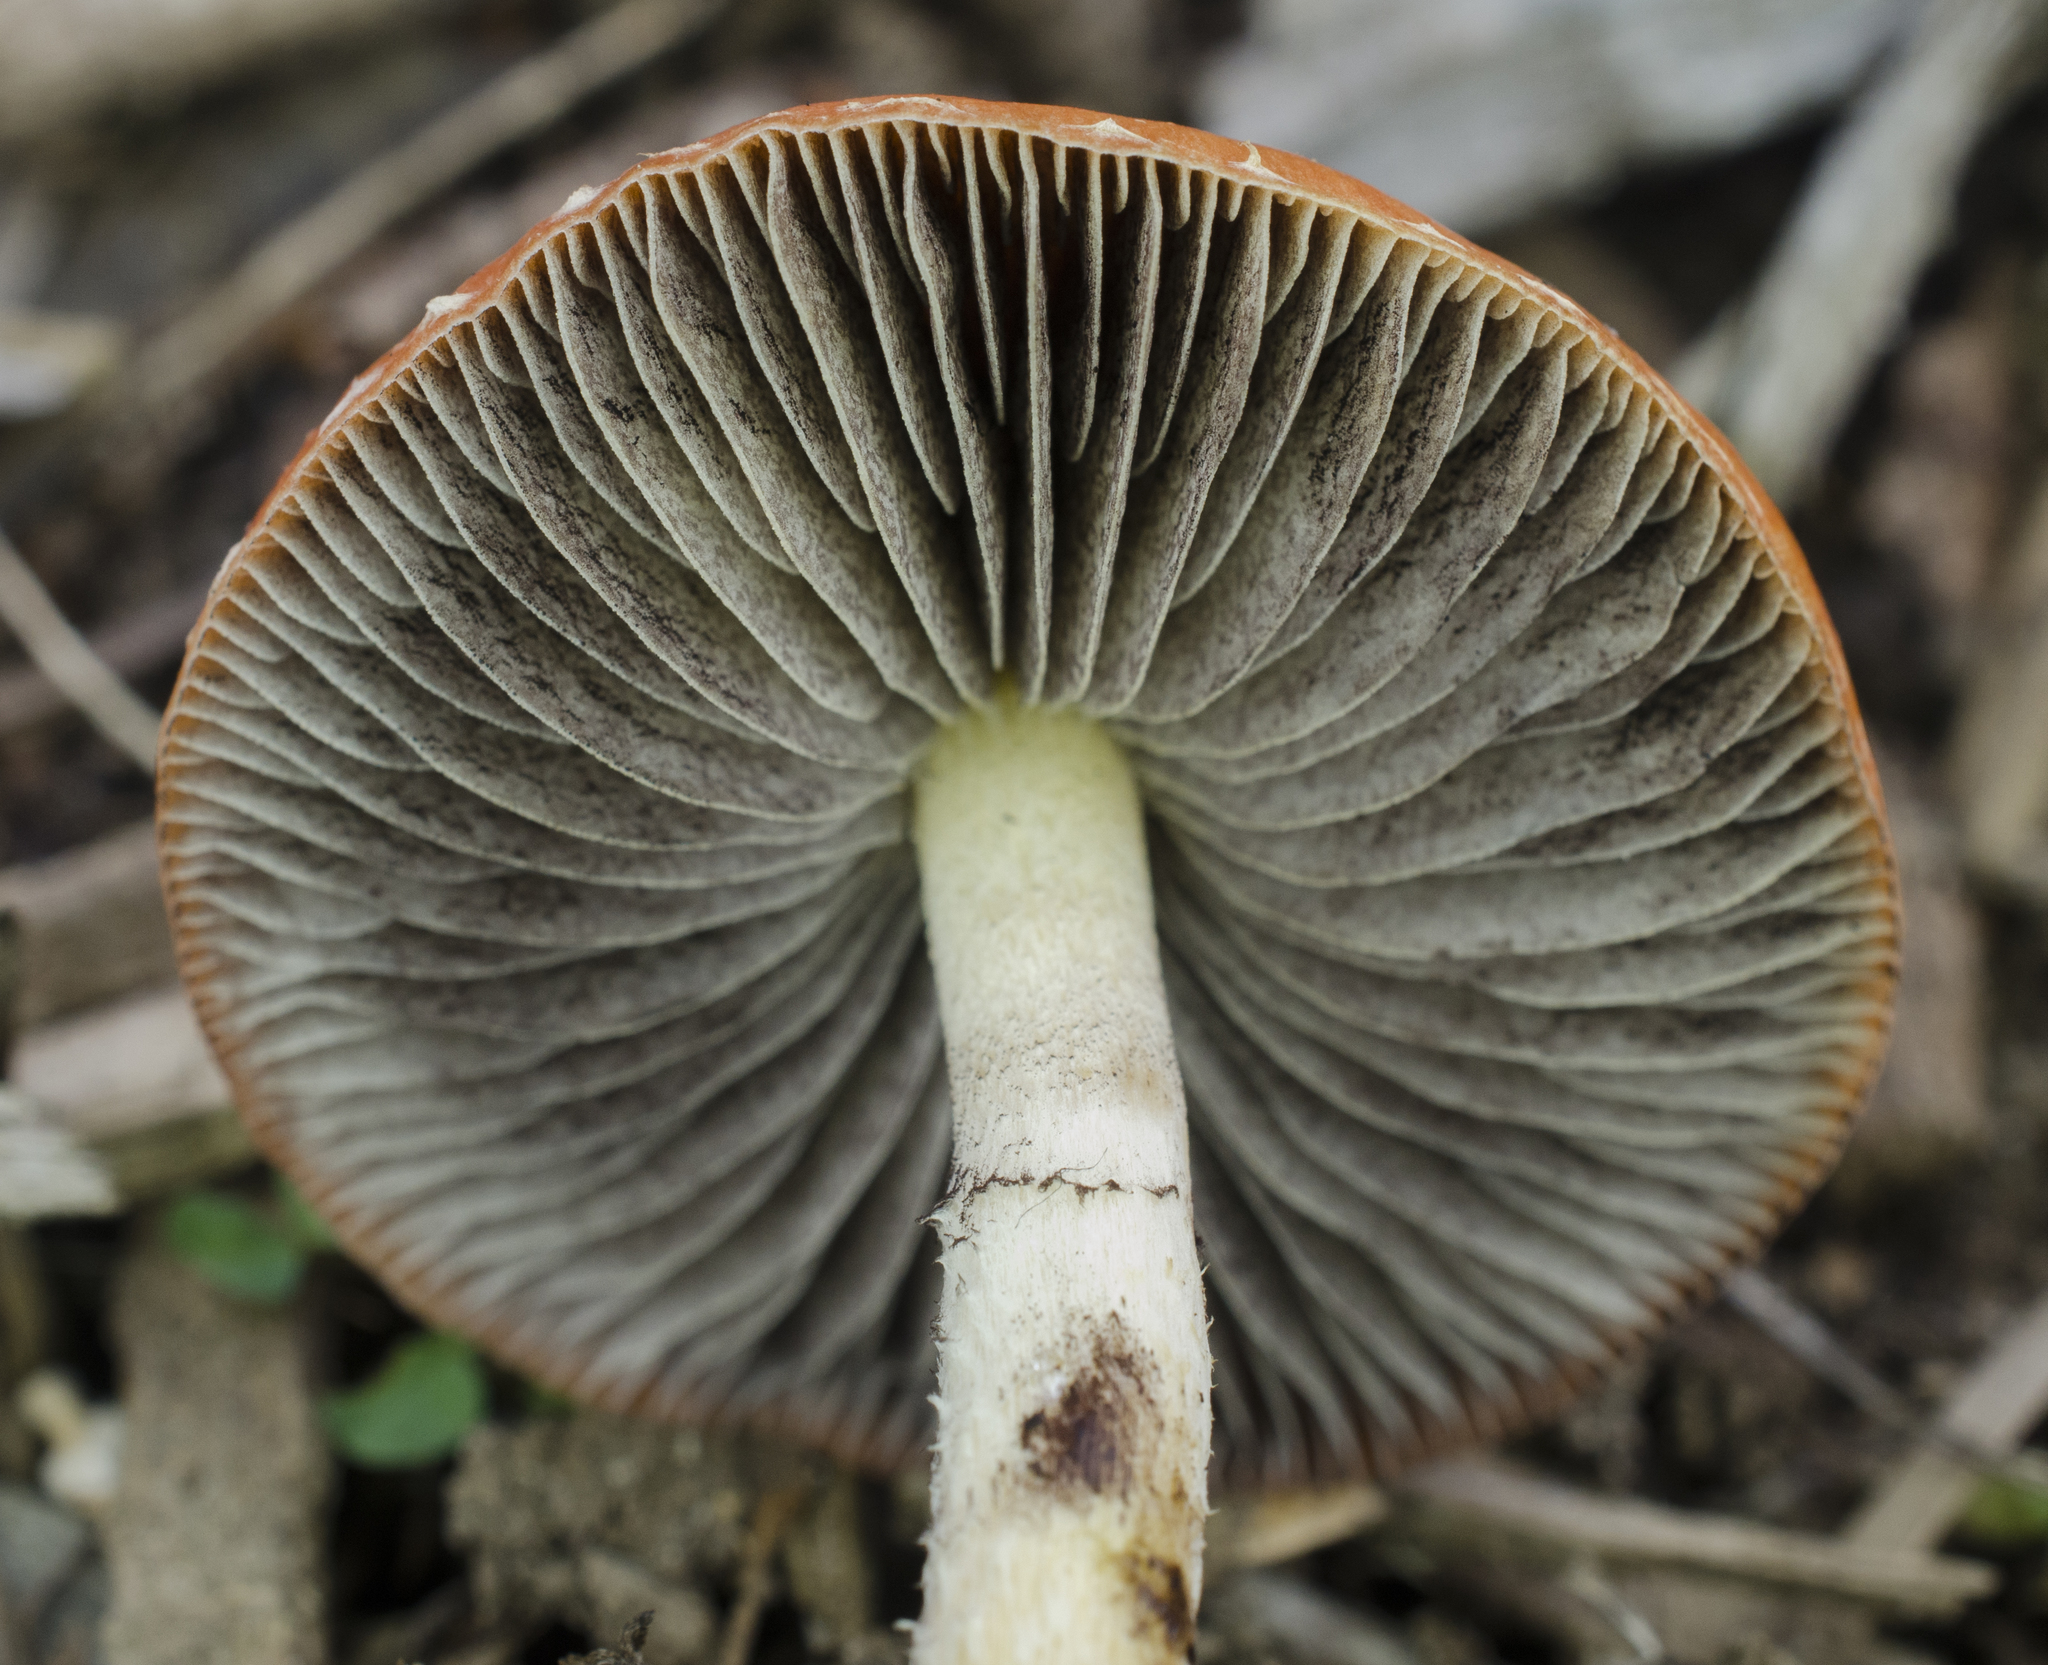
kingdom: Fungi
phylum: Basidiomycota
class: Agaricomycetes
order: Agaricales
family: Strophariaceae
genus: Leratiomyces
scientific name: Leratiomyces ceres
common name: Redlead roundhead
